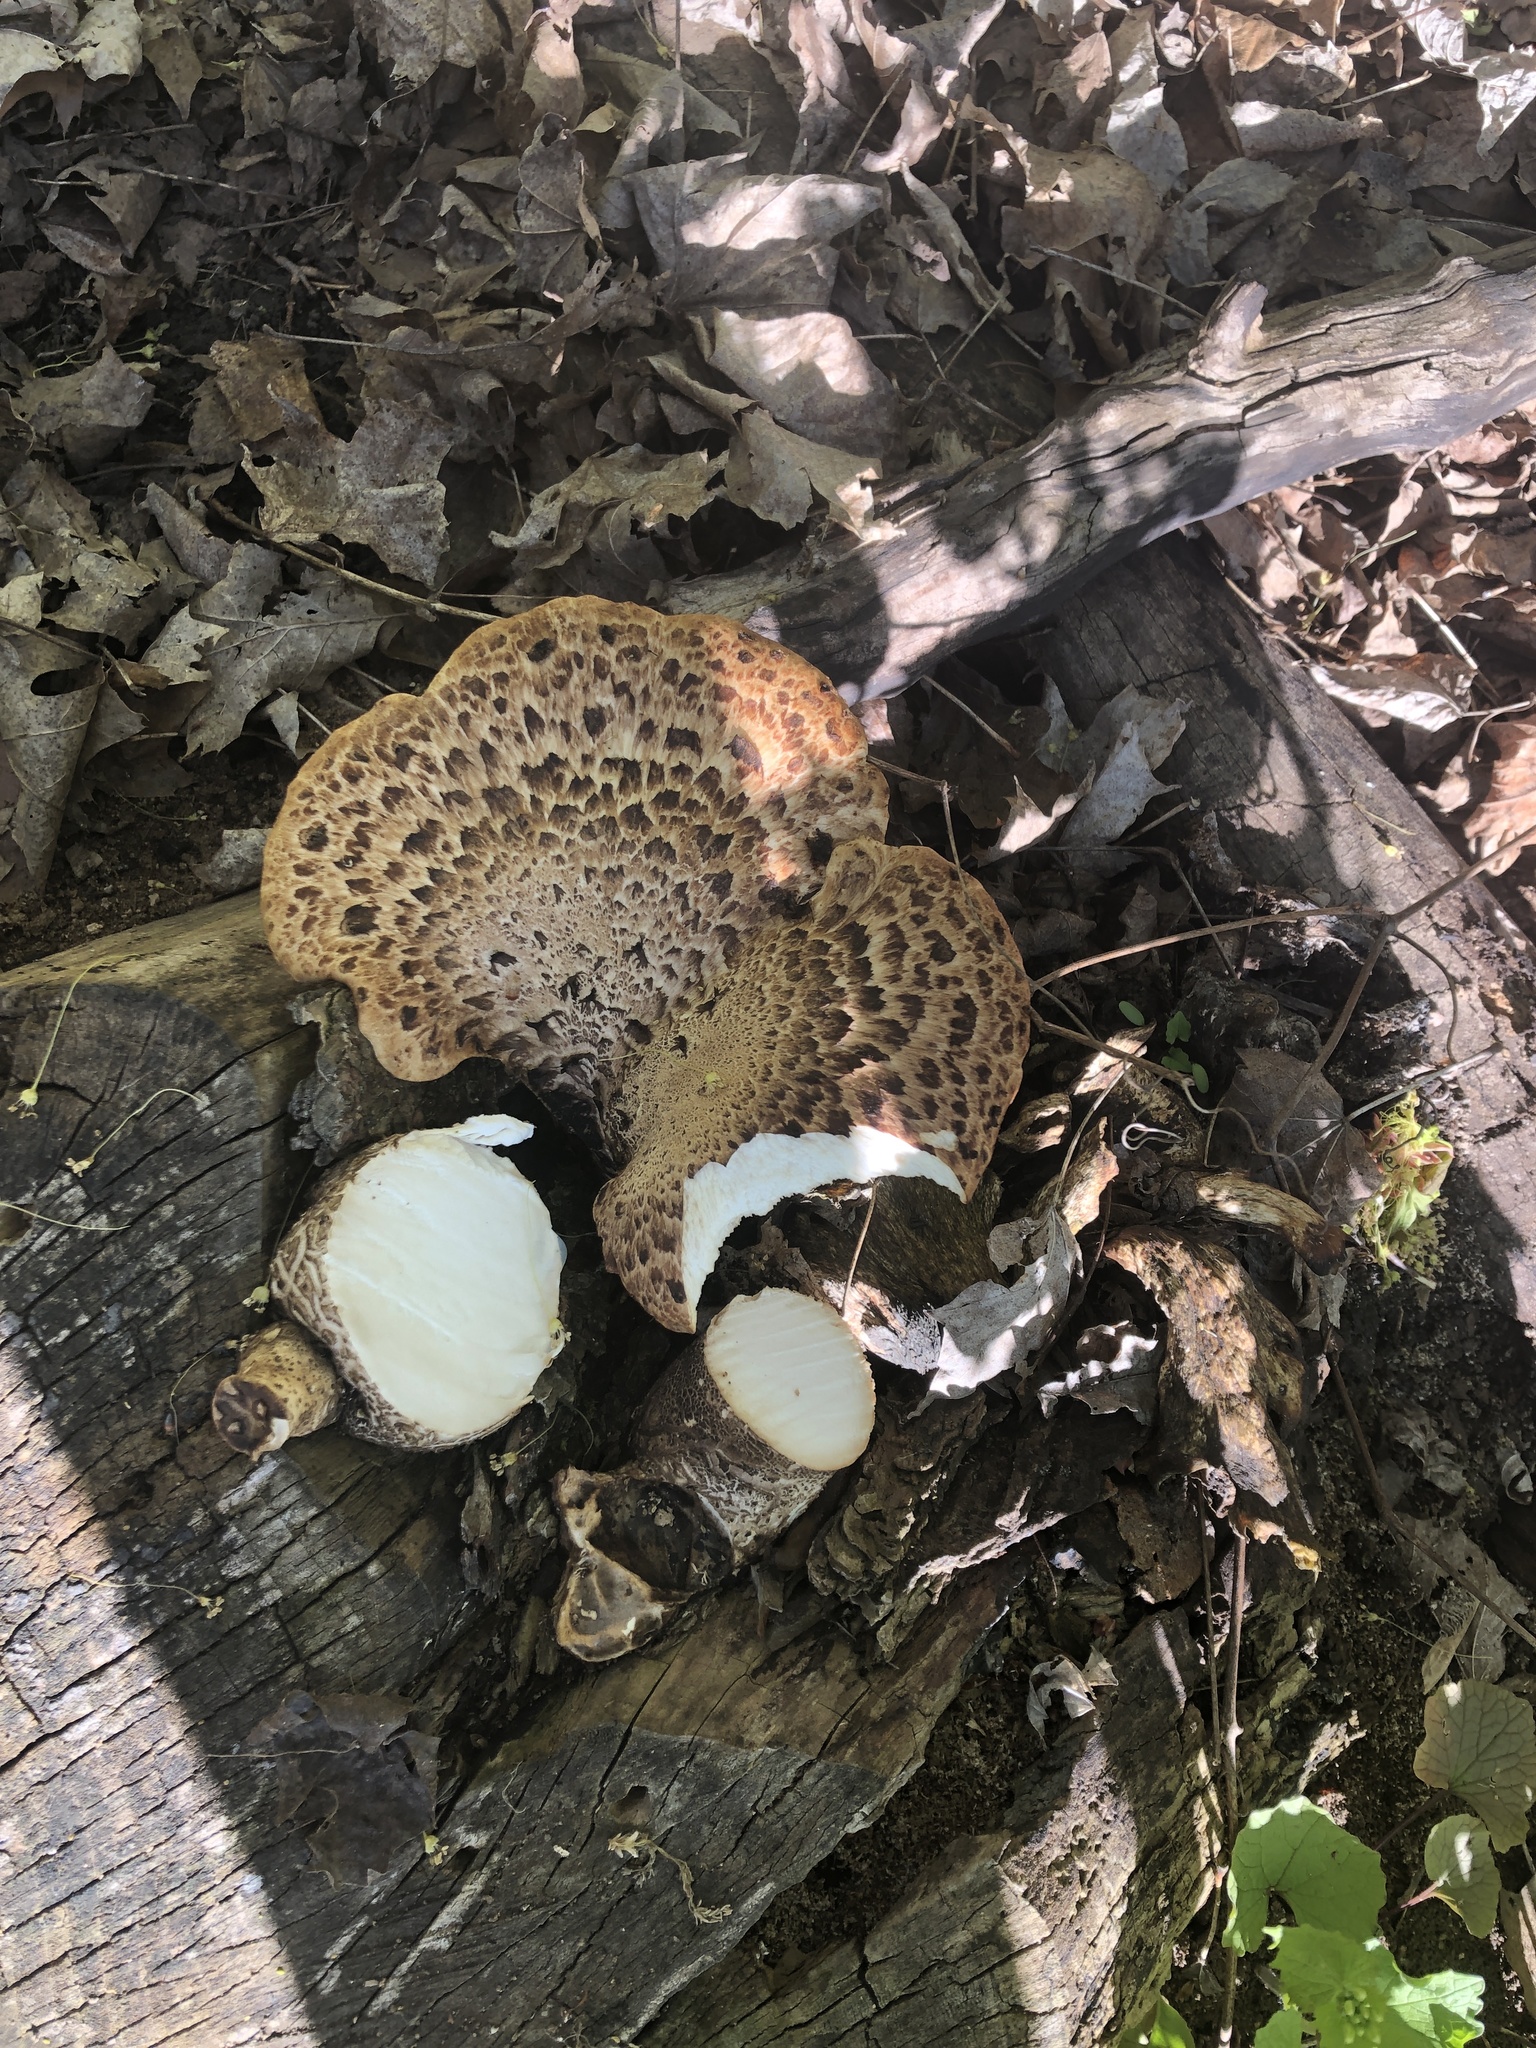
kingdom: Fungi
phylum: Basidiomycota
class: Agaricomycetes
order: Polyporales
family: Polyporaceae
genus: Cerioporus
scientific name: Cerioporus squamosus
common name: Dryad's saddle
